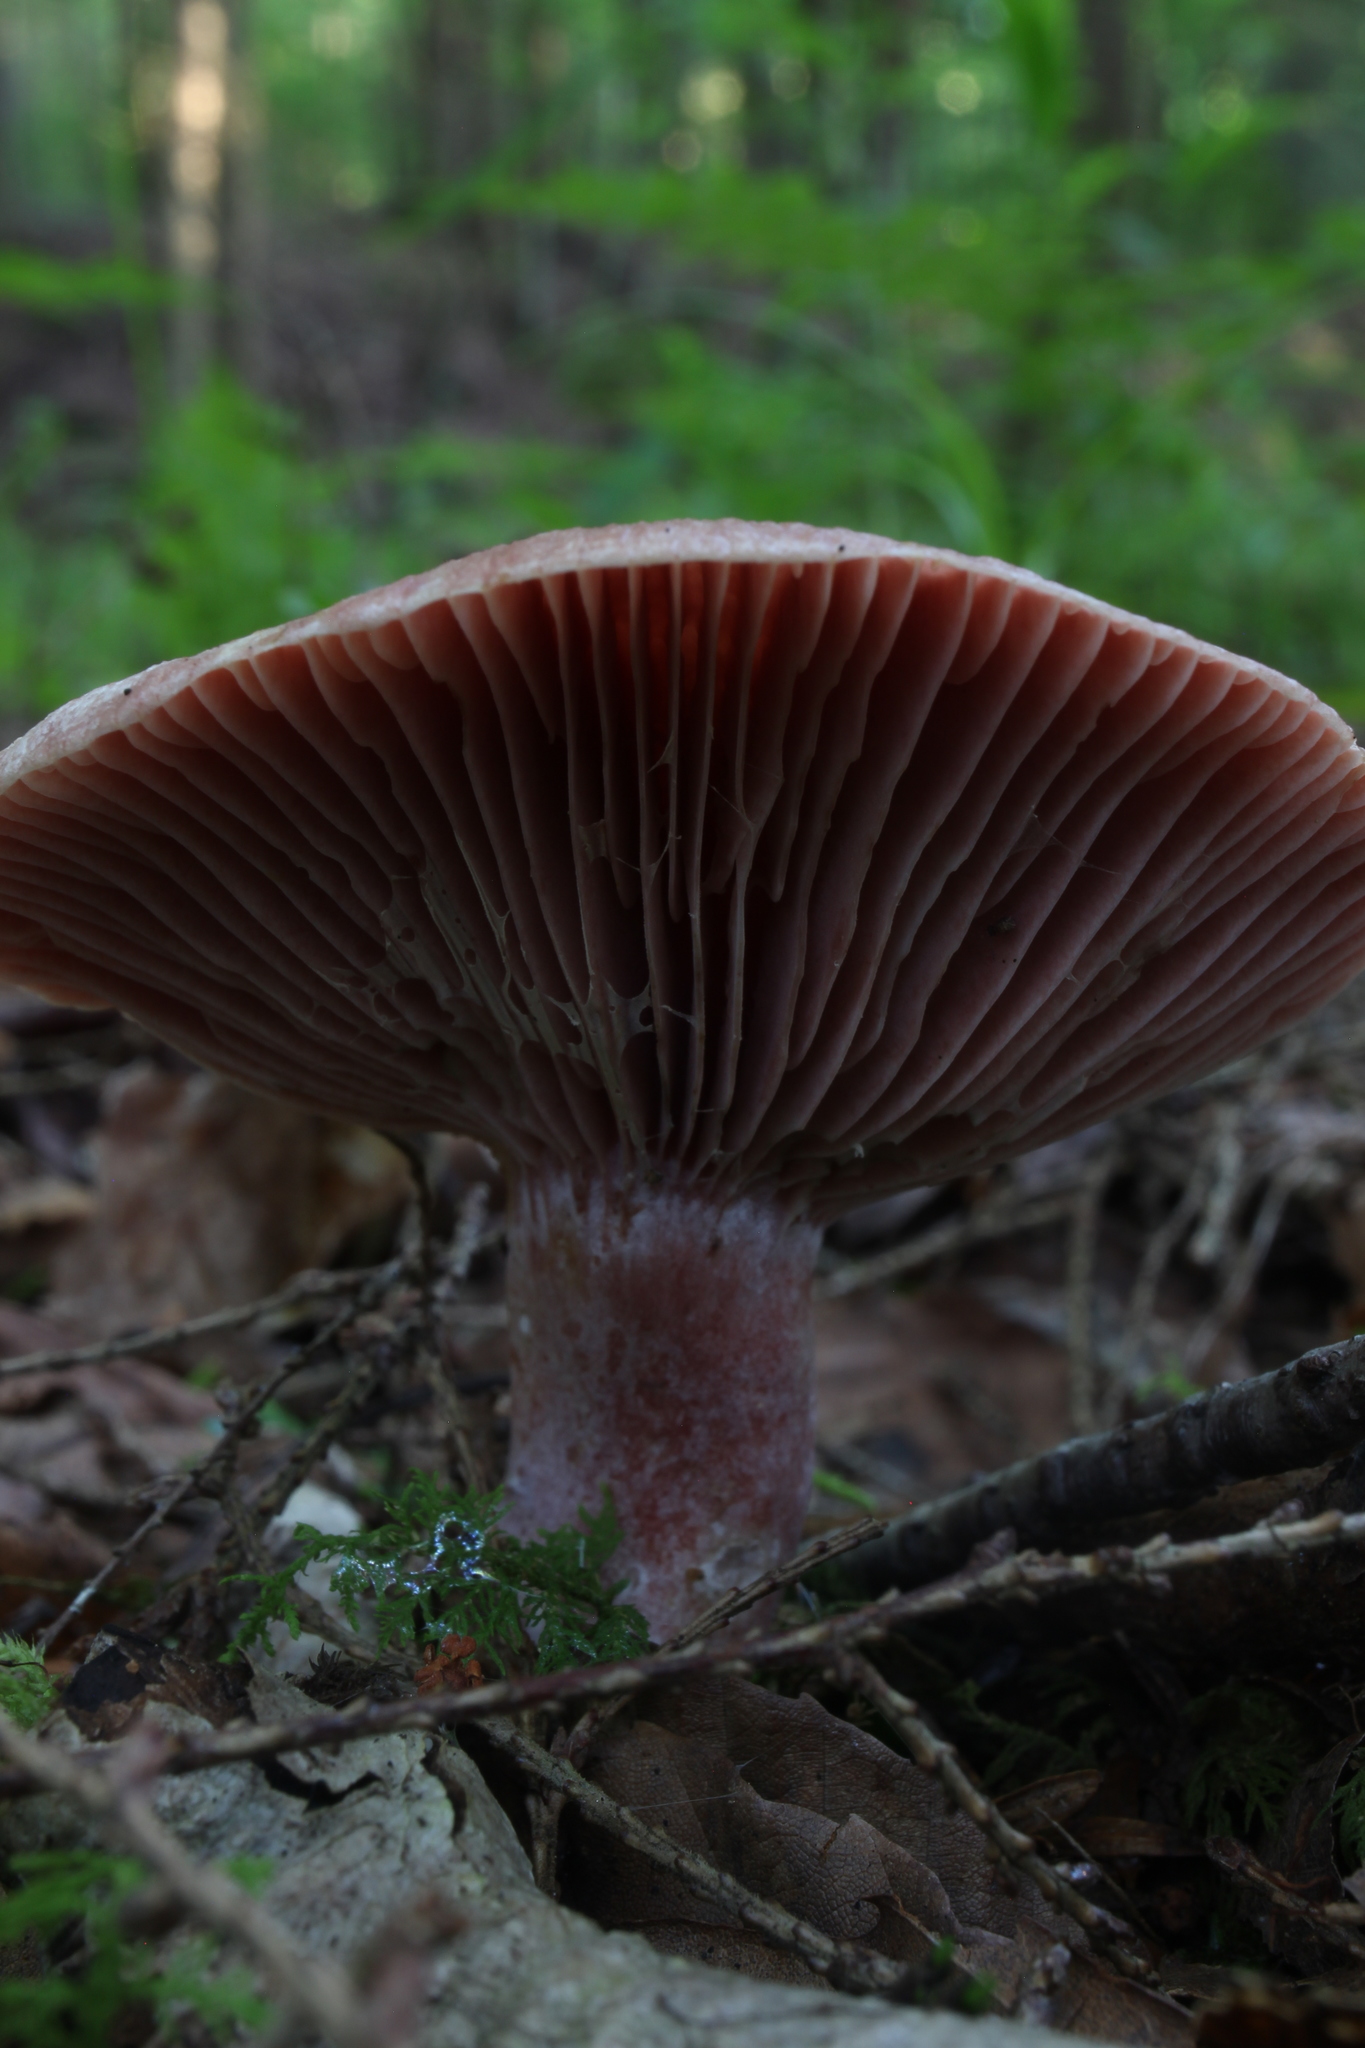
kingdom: Fungi
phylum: Basidiomycota
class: Agaricomycetes
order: Russulales
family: Russulaceae
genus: Lactarius
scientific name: Lactarius subpurpureus
